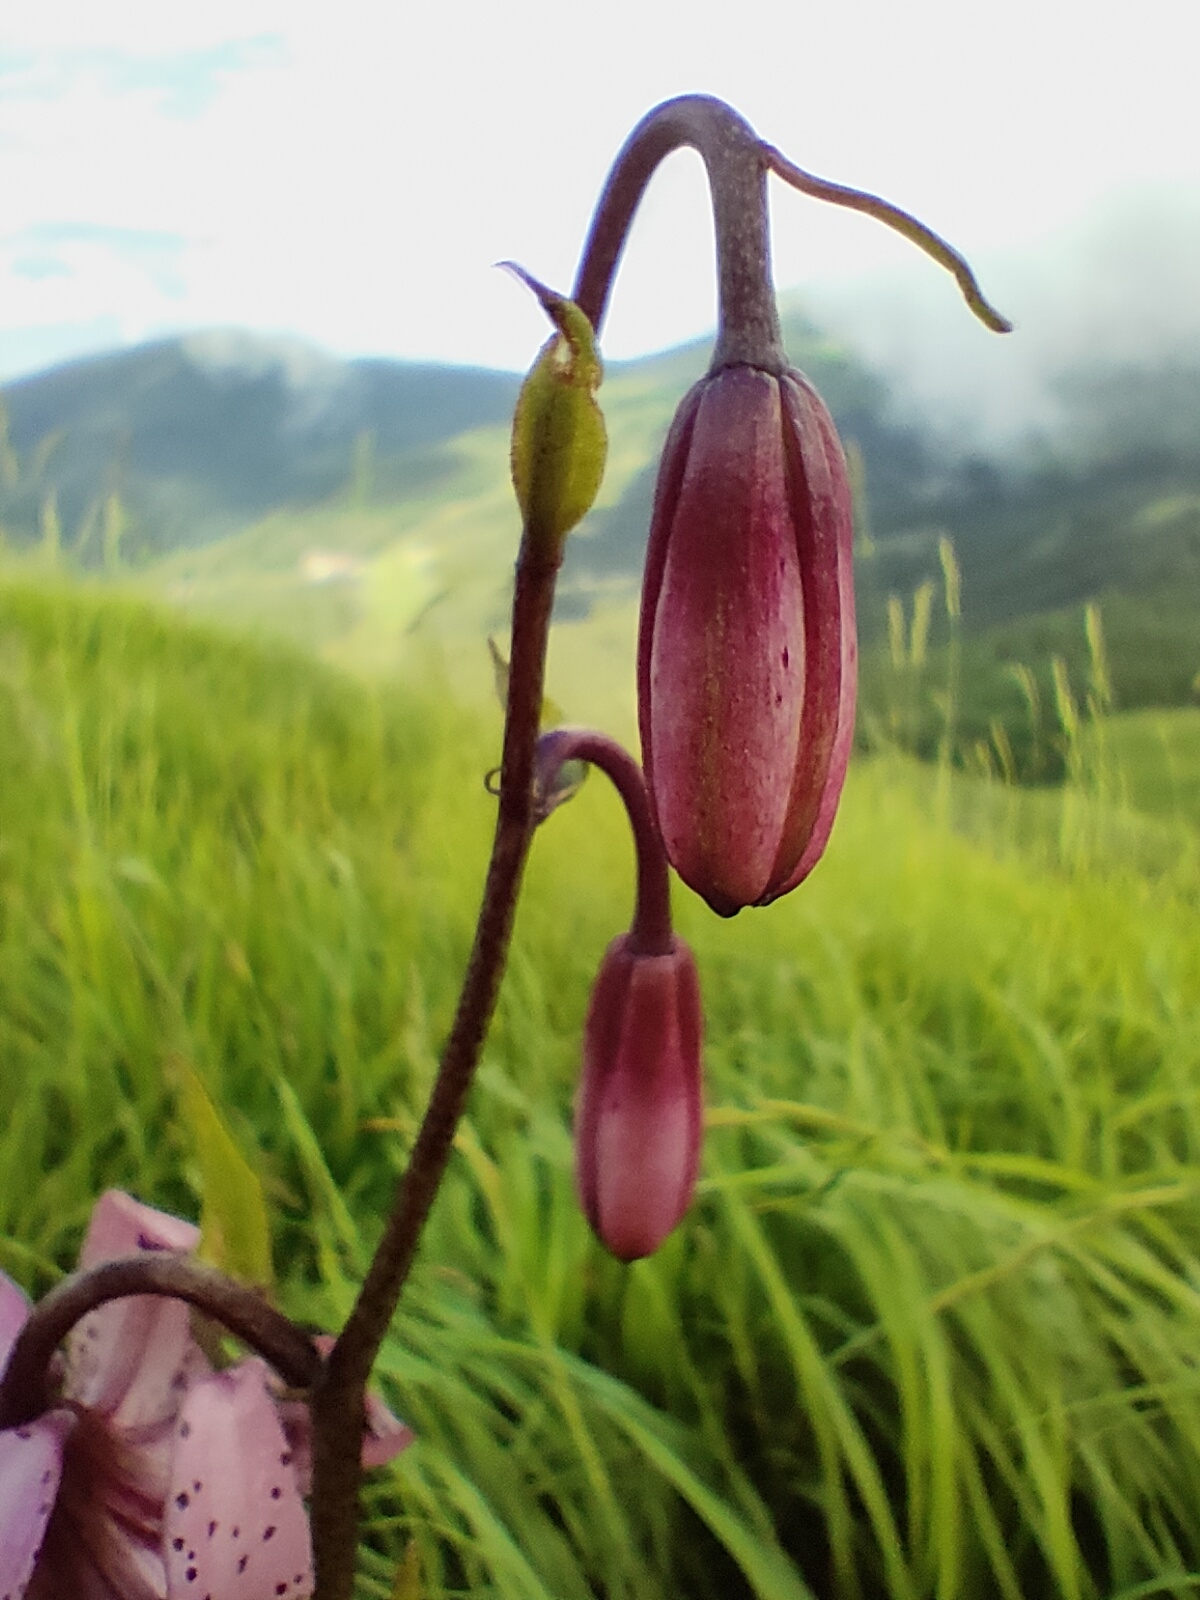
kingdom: Plantae
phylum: Tracheophyta
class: Liliopsida
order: Liliales
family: Liliaceae
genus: Lilium
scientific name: Lilium martagon
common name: Martagon lily
